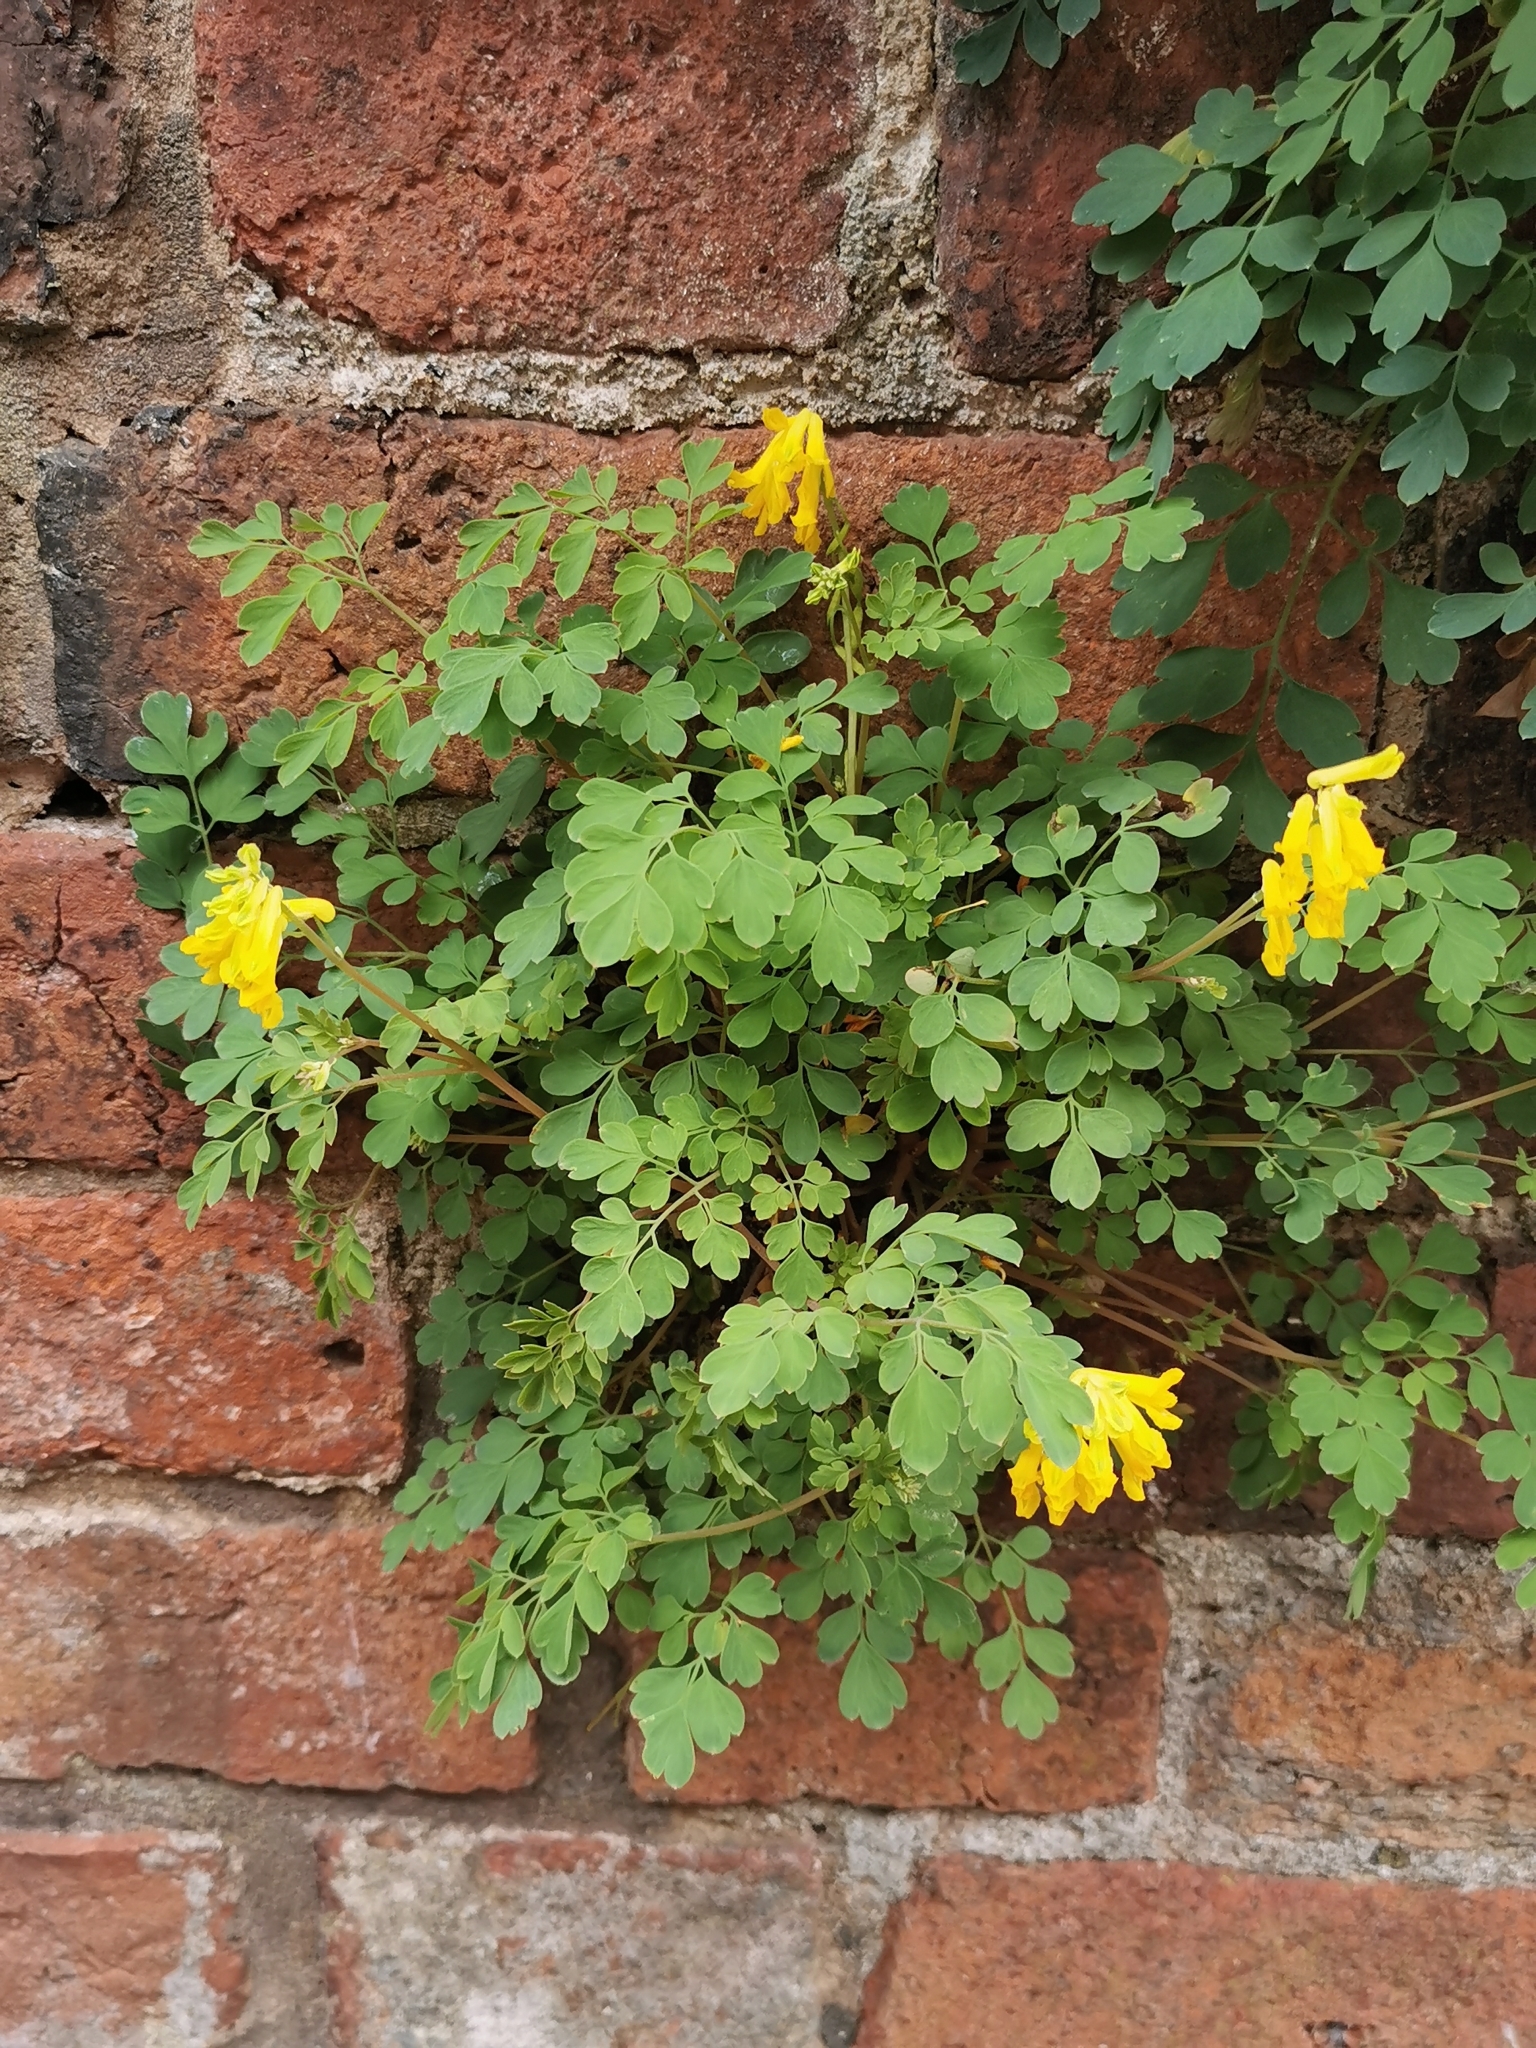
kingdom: Plantae
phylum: Tracheophyta
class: Magnoliopsida
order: Ranunculales
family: Papaveraceae
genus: Pseudofumaria
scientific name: Pseudofumaria lutea
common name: Yellow corydalis
